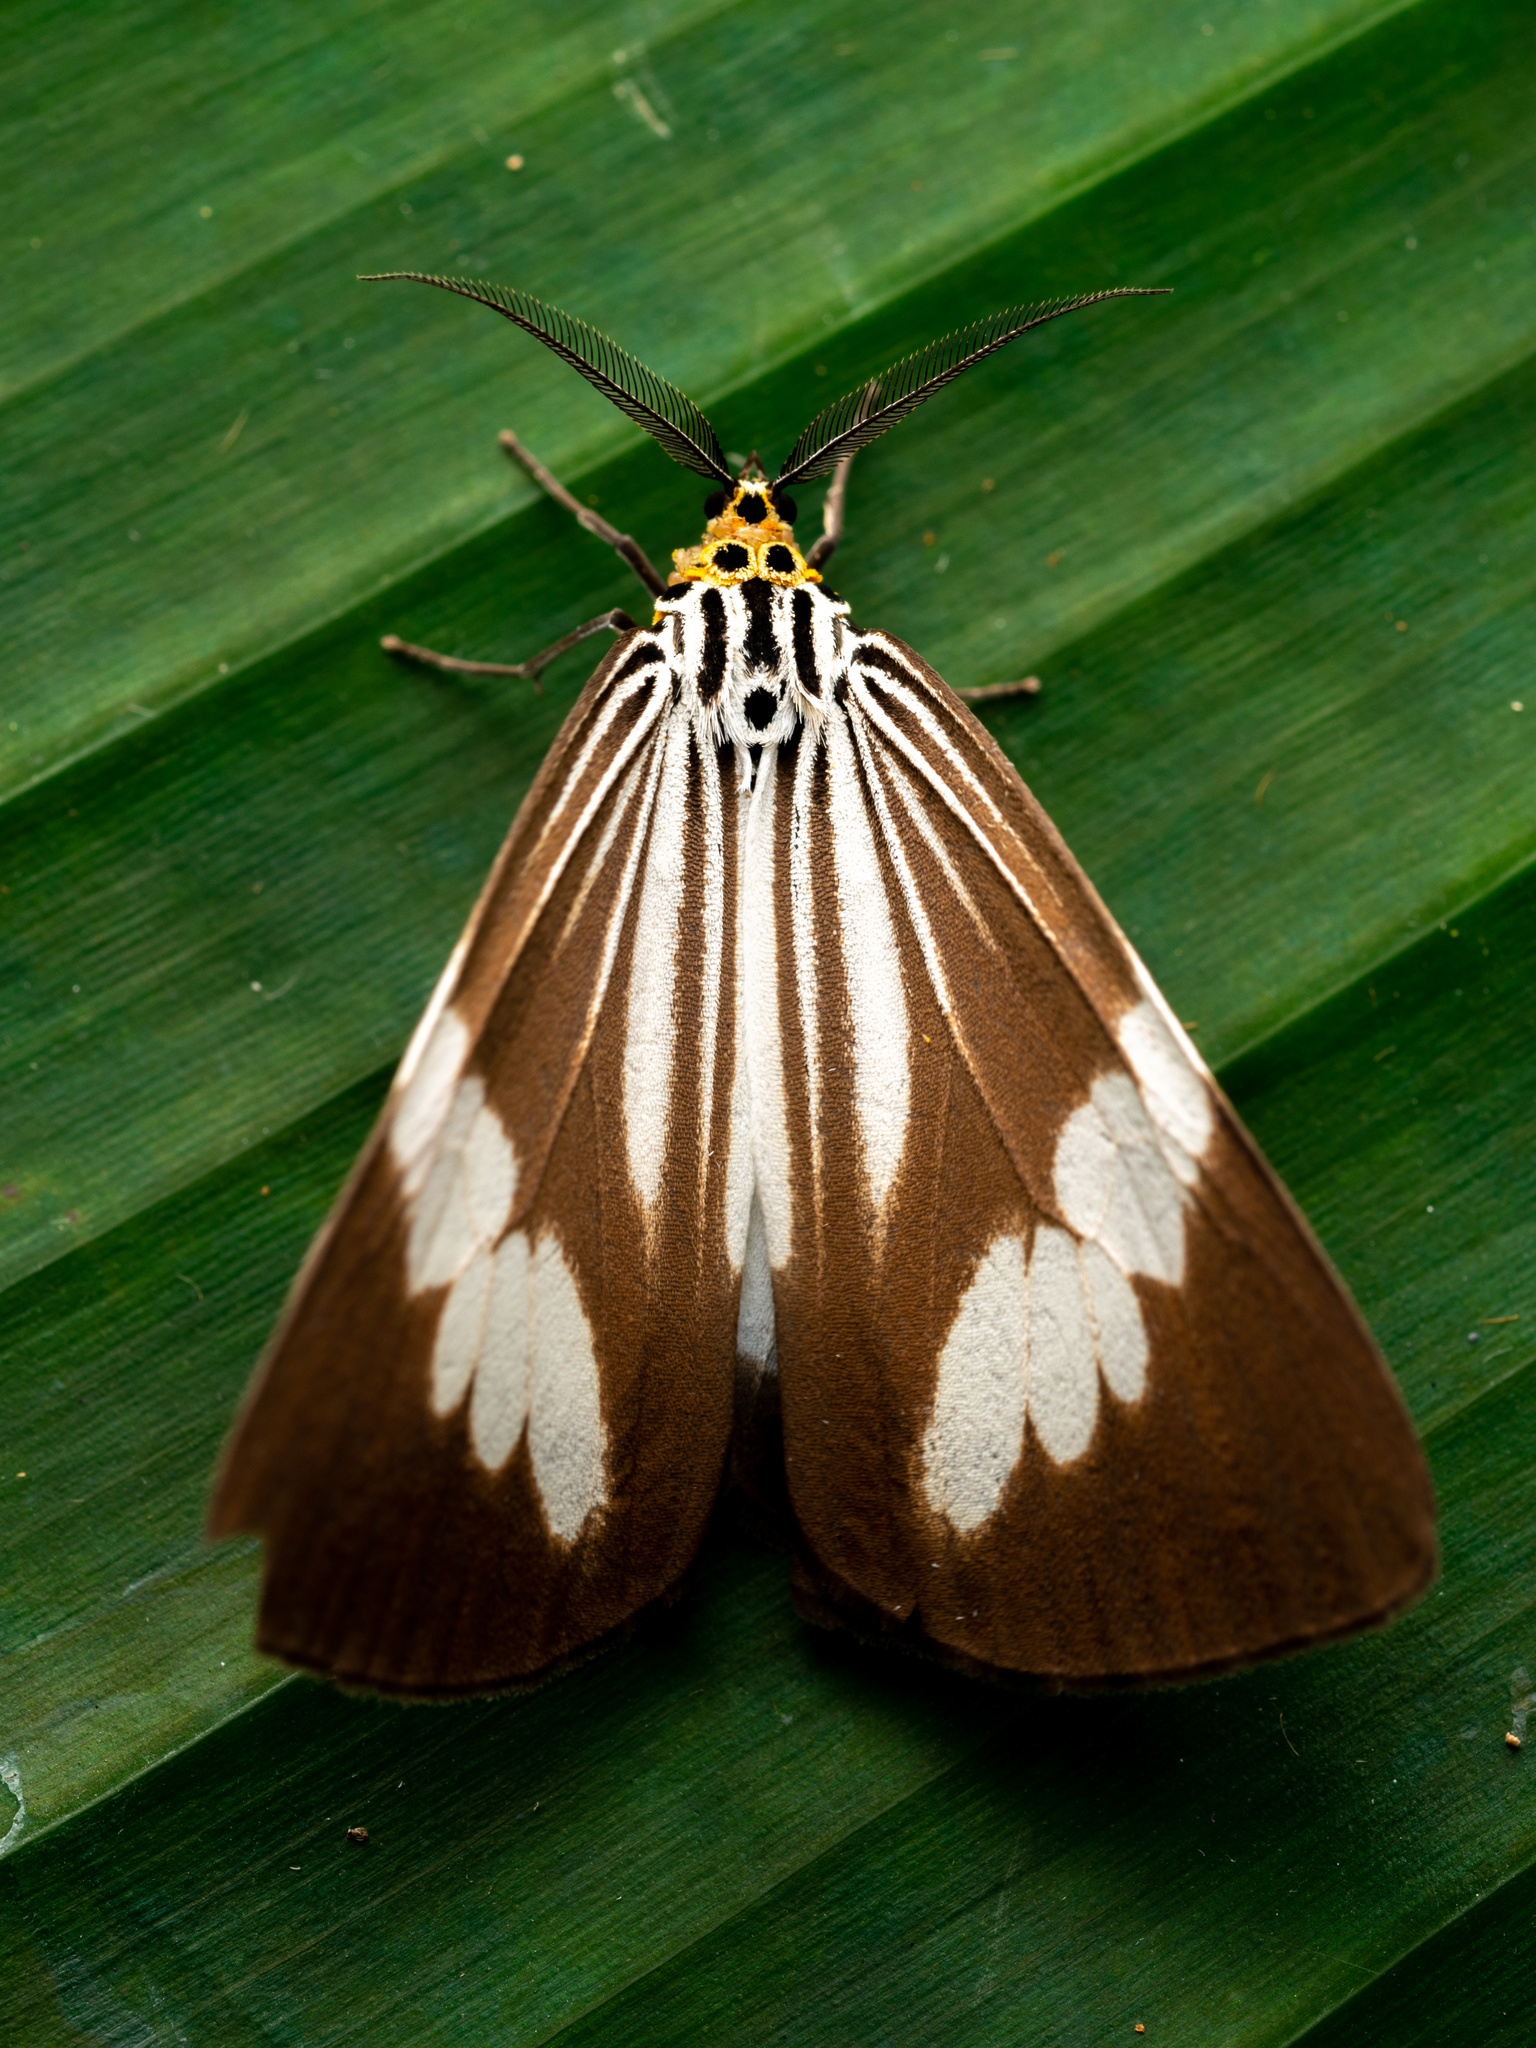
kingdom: Animalia
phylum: Arthropoda
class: Insecta
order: Lepidoptera
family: Erebidae
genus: Nyctemera
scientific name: Nyctemera tripunctaria
